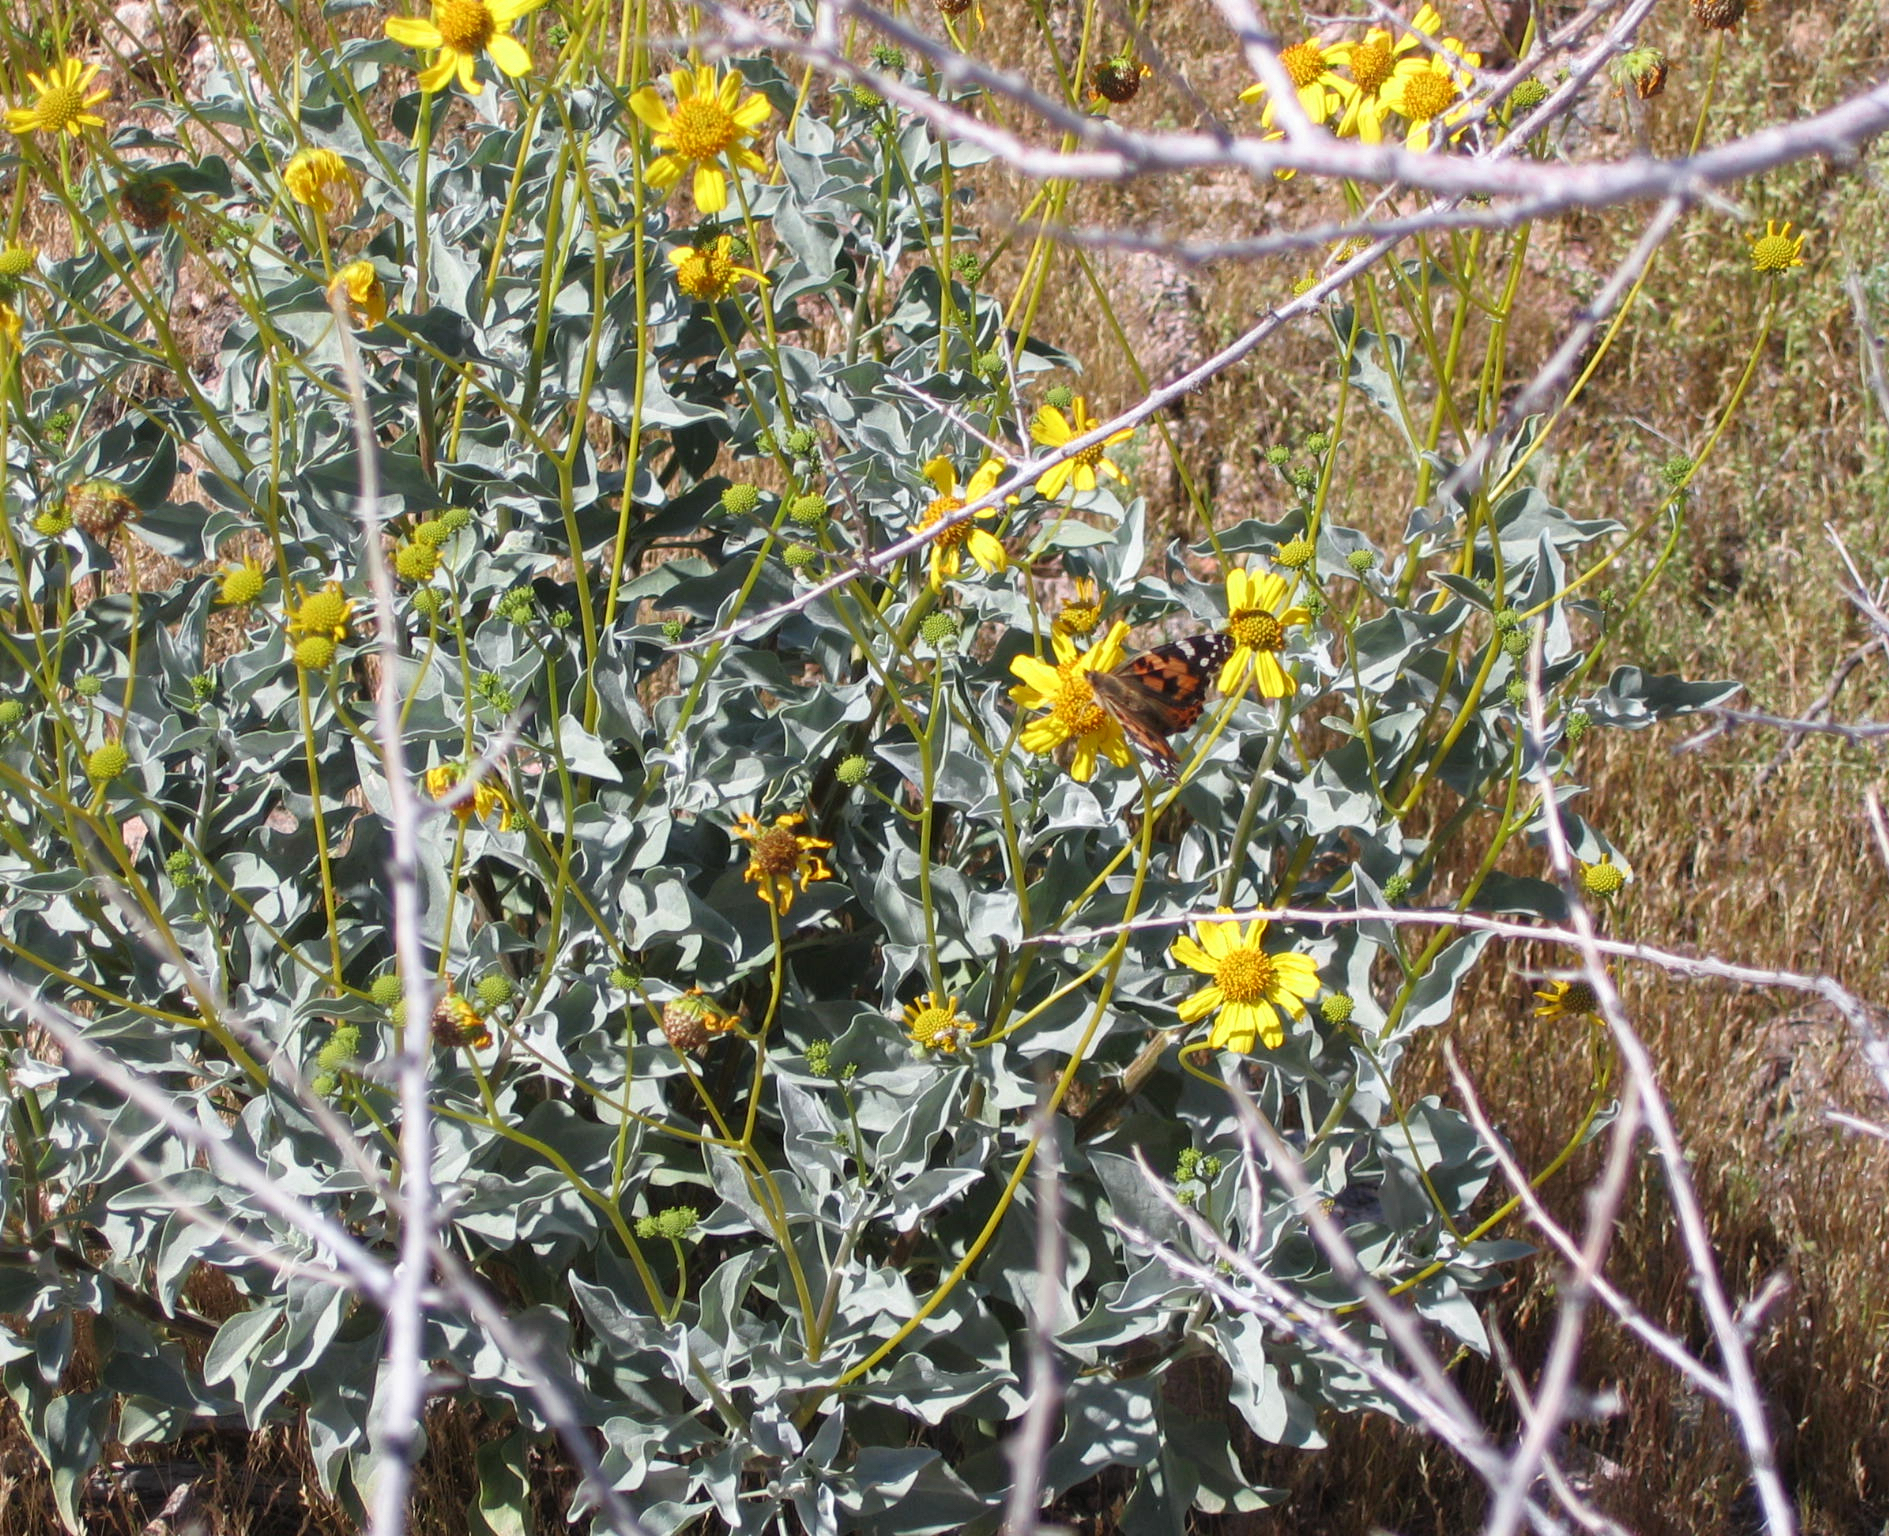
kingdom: Plantae
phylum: Tracheophyta
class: Magnoliopsida
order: Asterales
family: Asteraceae
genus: Encelia
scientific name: Encelia farinosa
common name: Brittlebush
